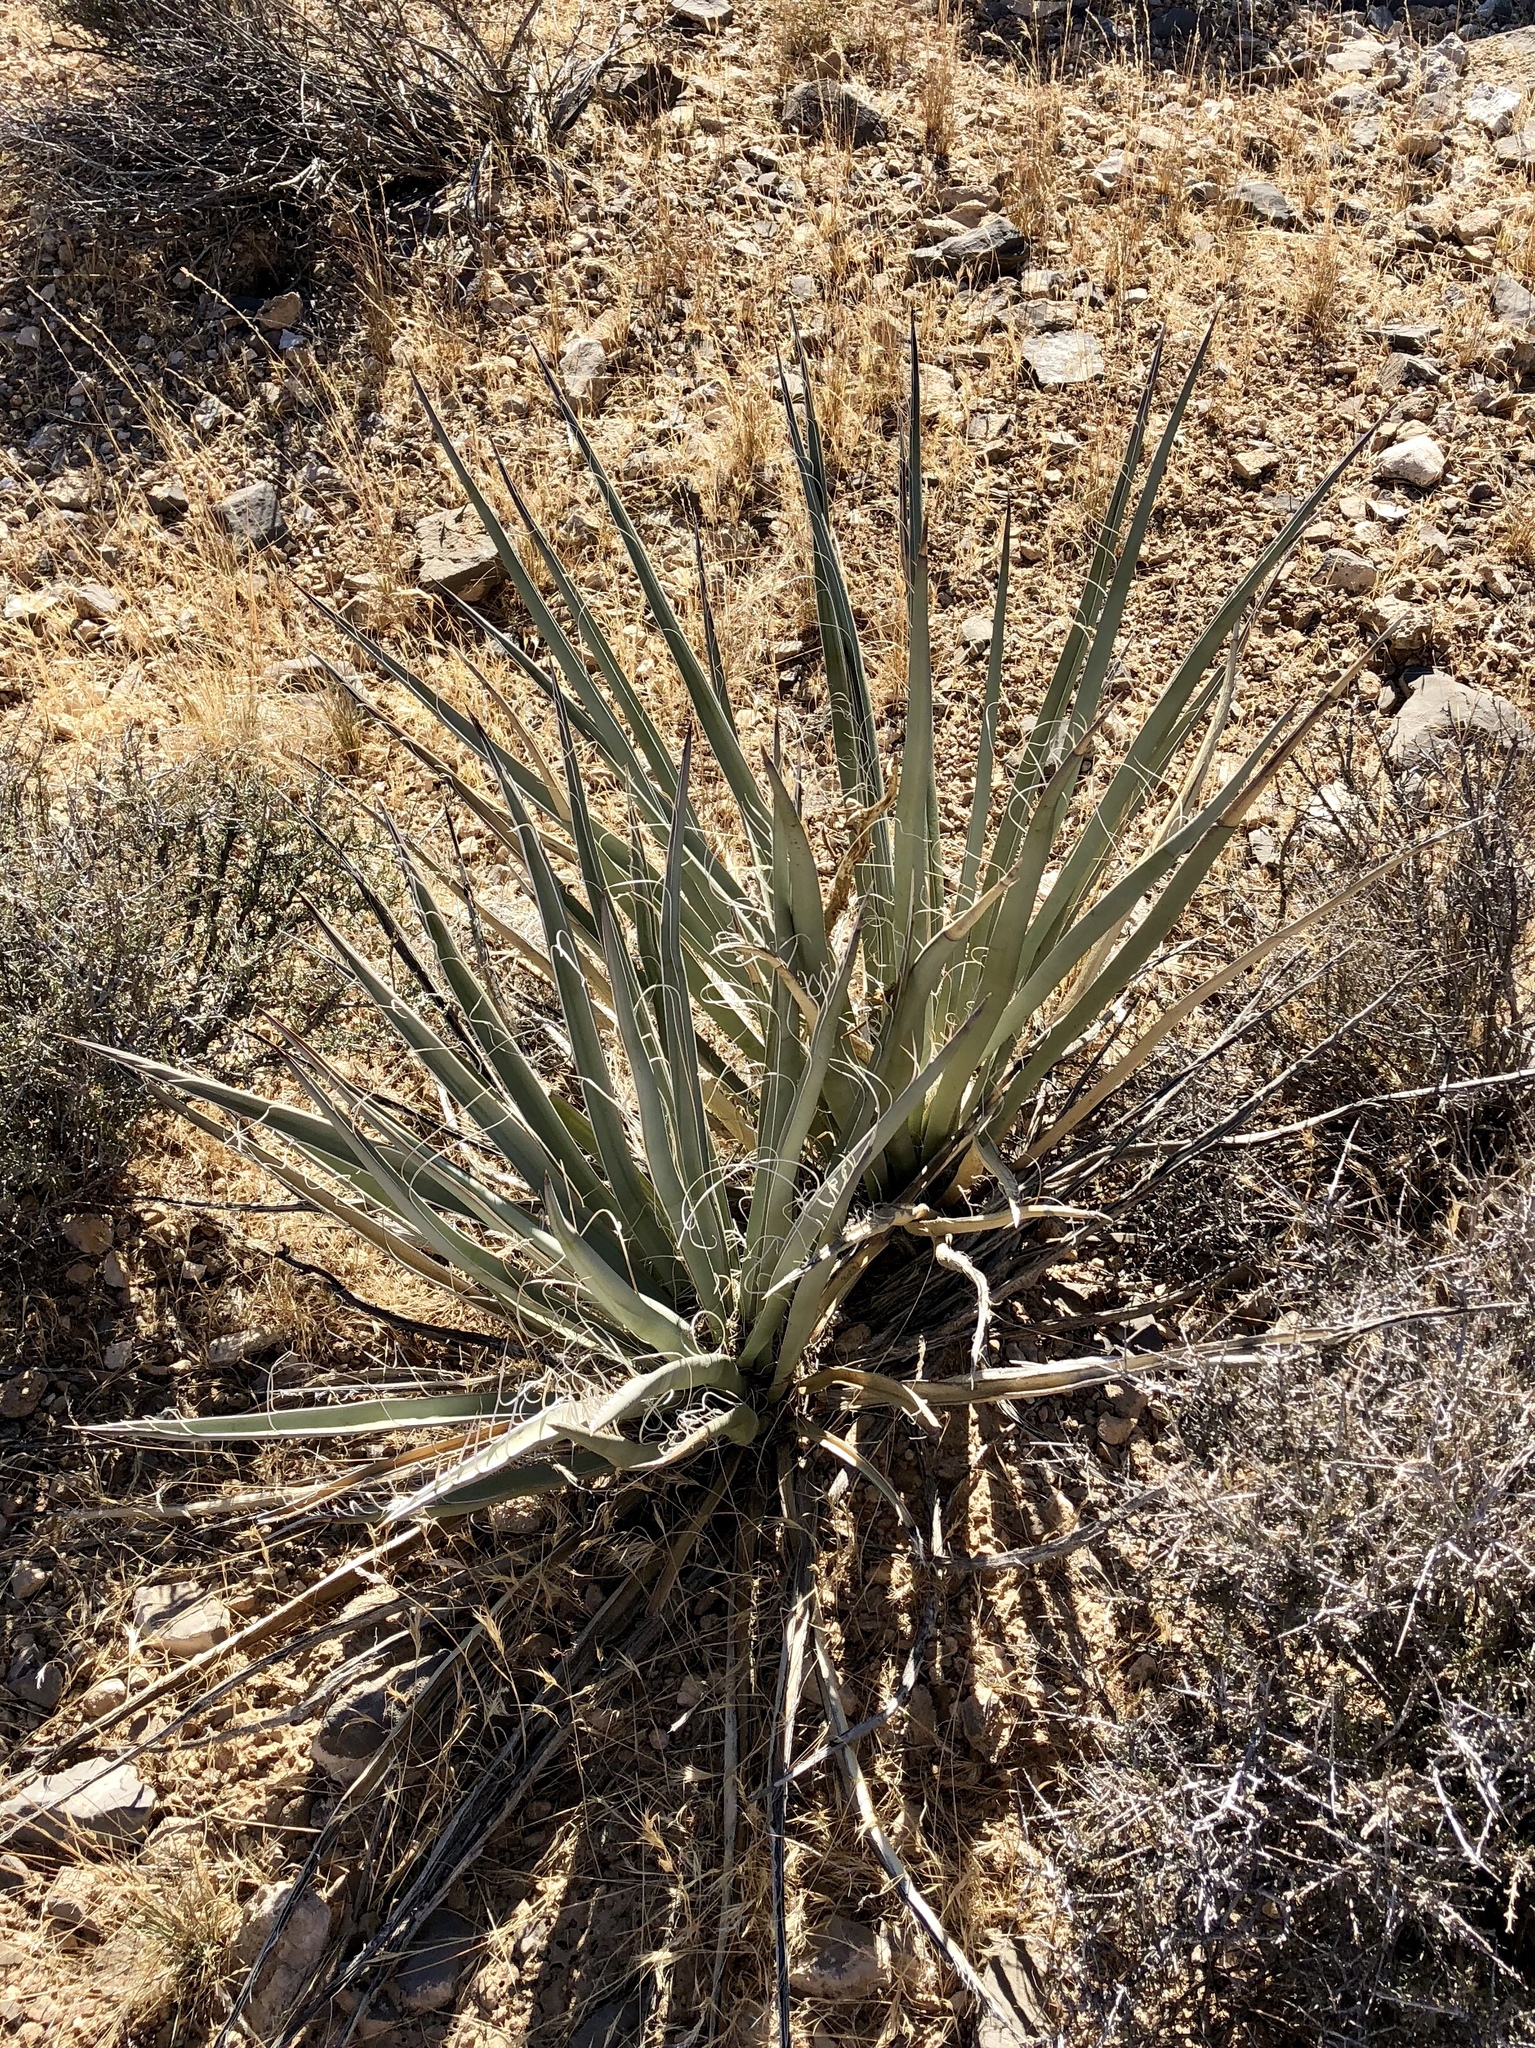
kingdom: Plantae
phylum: Tracheophyta
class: Liliopsida
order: Asparagales
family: Asparagaceae
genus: Yucca
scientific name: Yucca baccata
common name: Banana yucca
